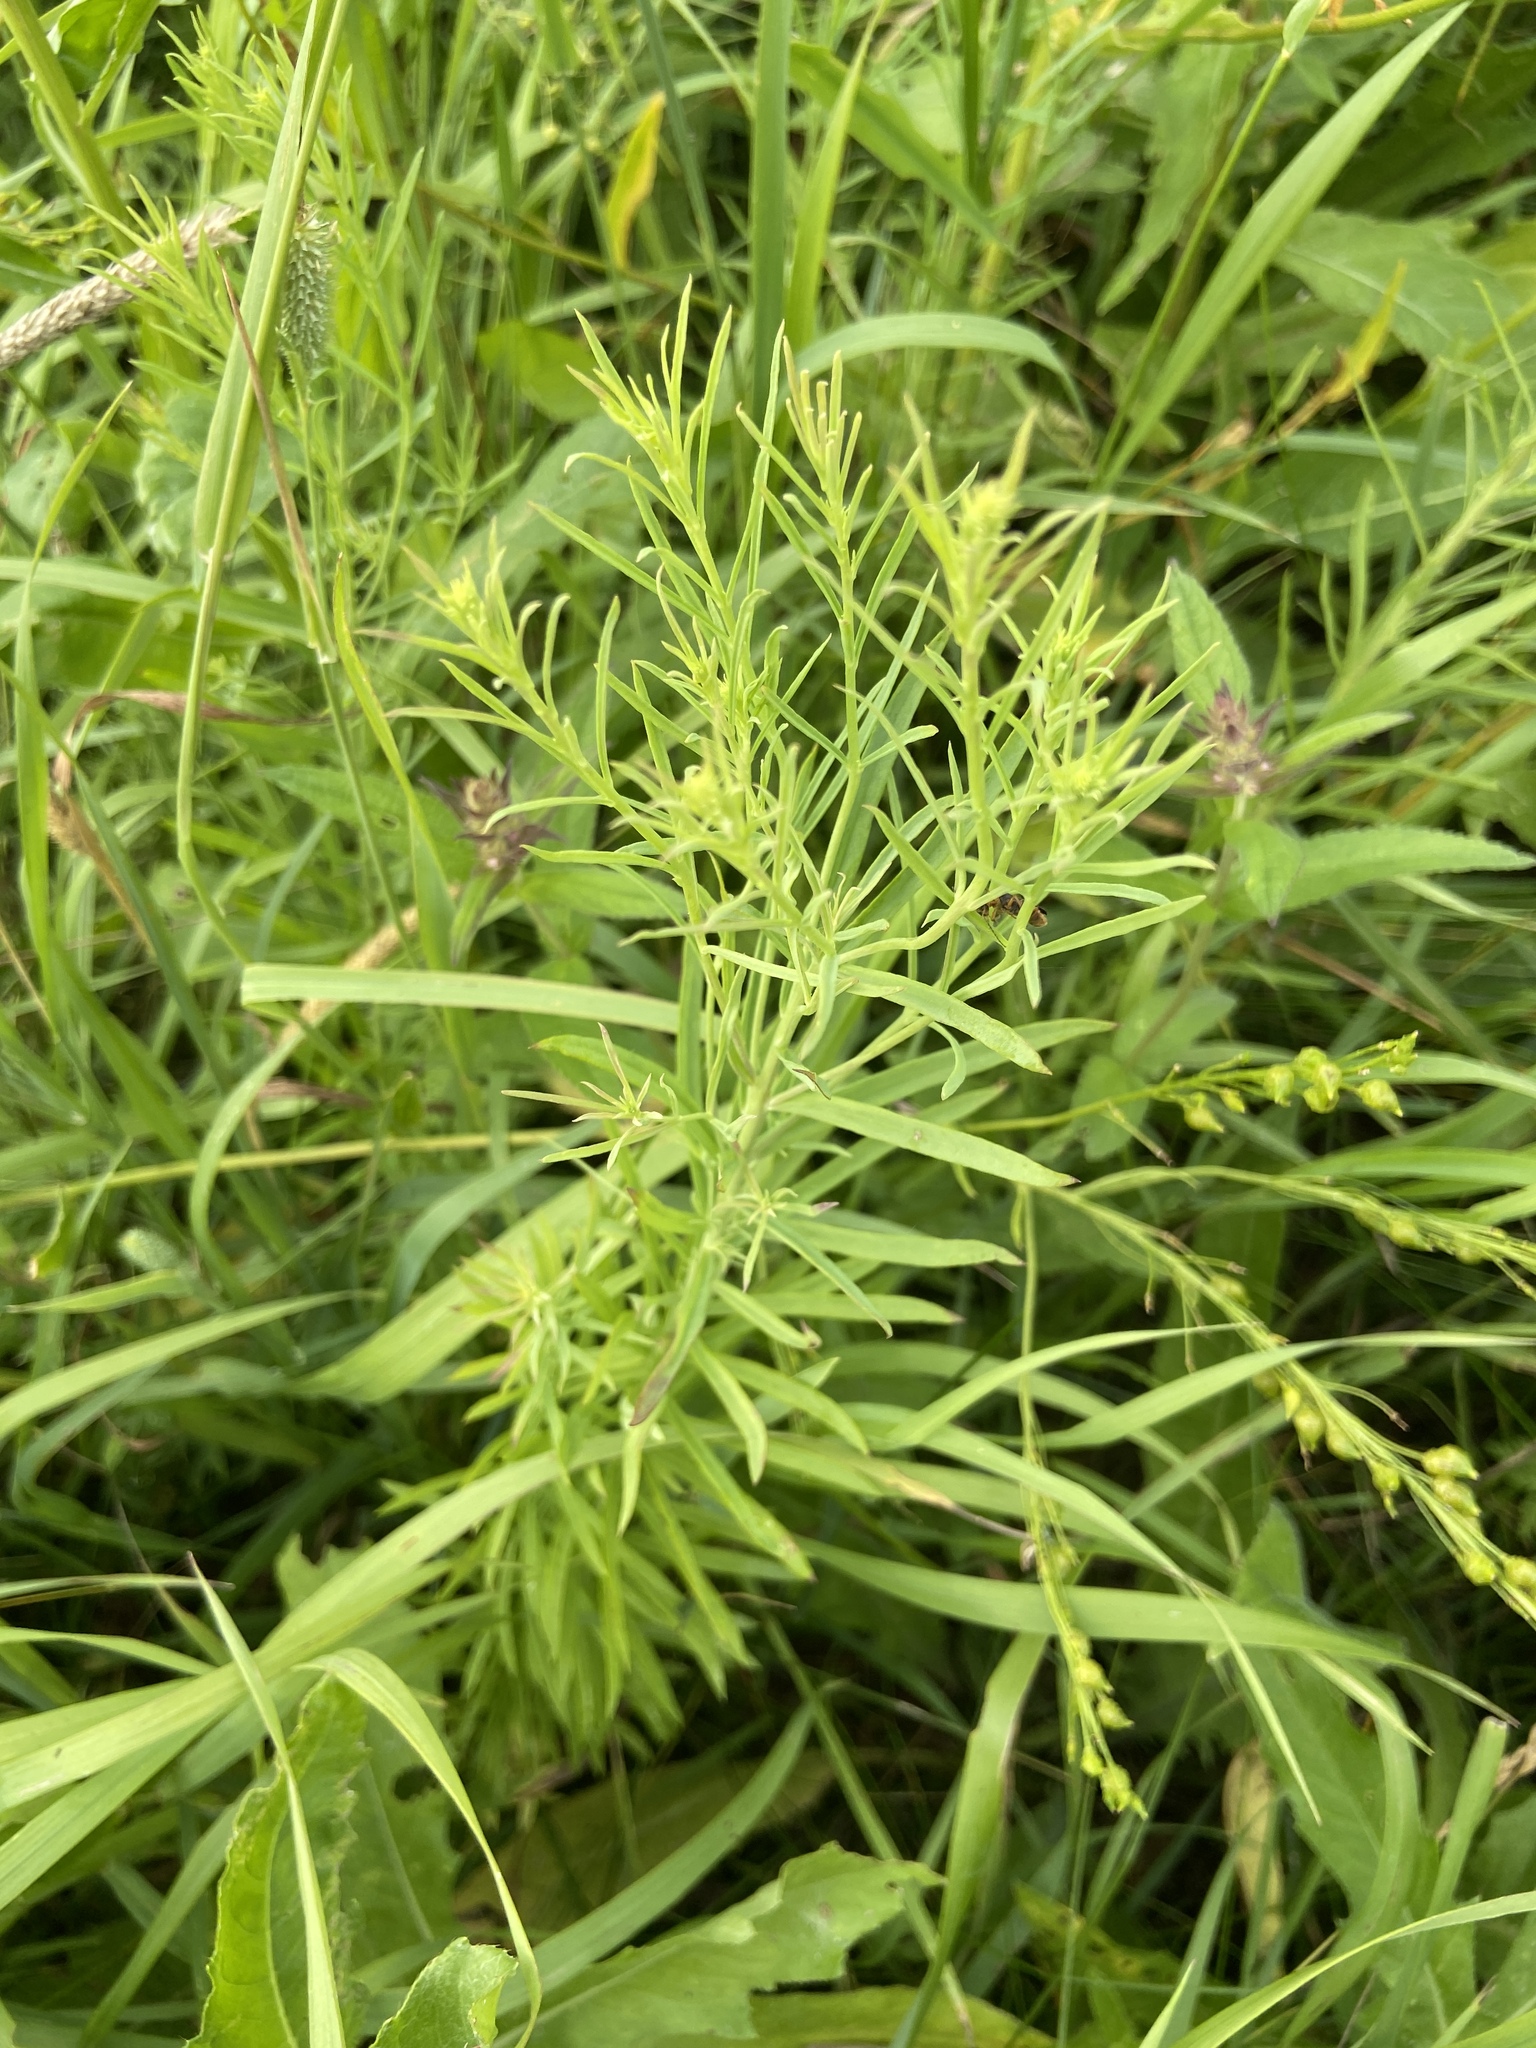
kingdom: Plantae
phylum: Tracheophyta
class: Magnoliopsida
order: Lamiales
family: Plantaginaceae
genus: Linaria
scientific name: Linaria vulgaris
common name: Butter and eggs
